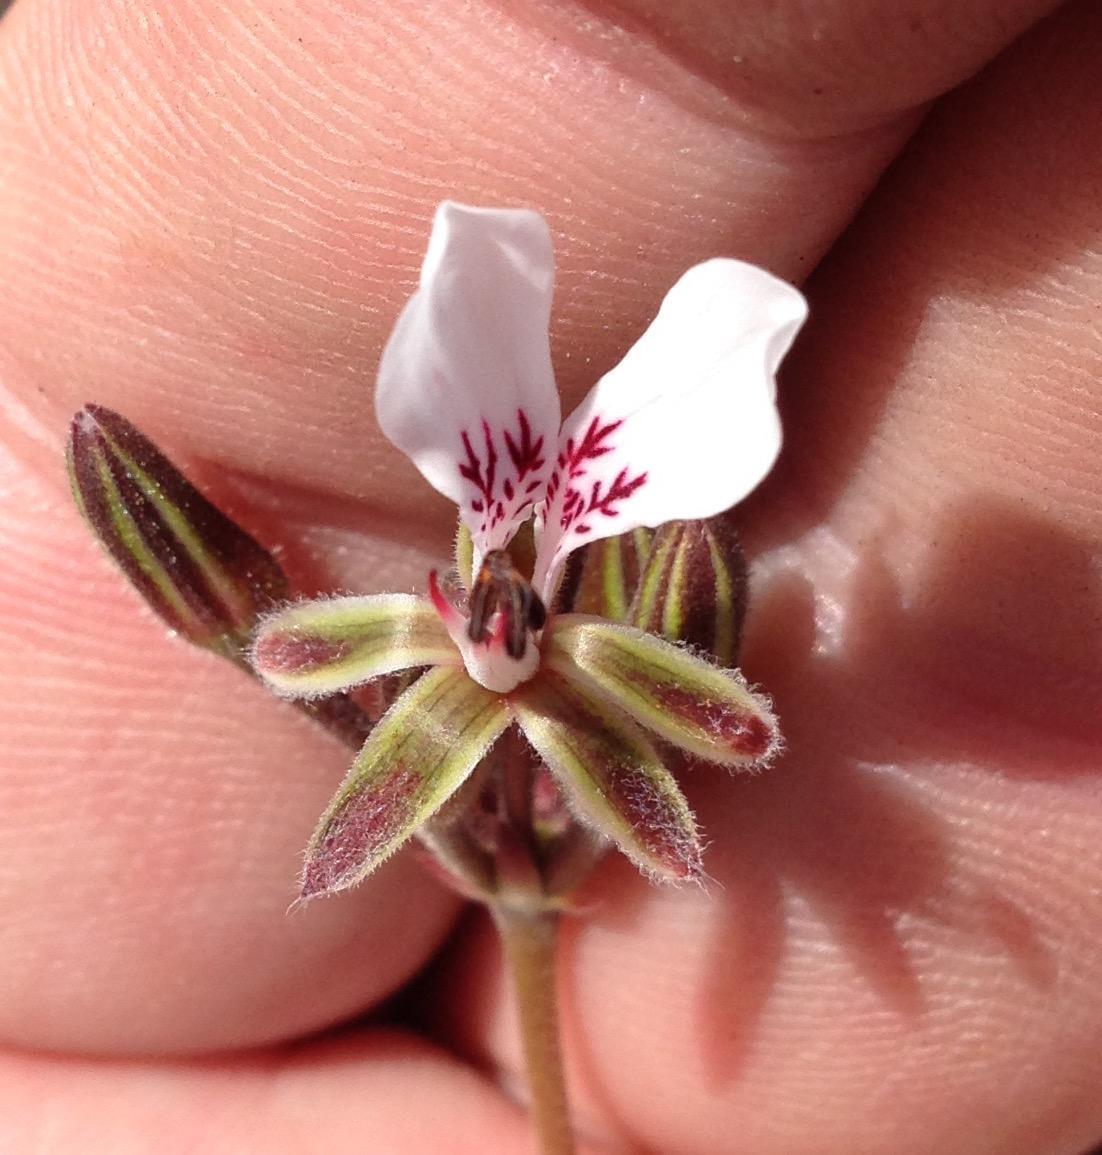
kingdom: Plantae
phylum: Tracheophyta
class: Magnoliopsida
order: Geraniales
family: Geraniaceae
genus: Pelargonium
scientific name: Pelargonium dipetalum
